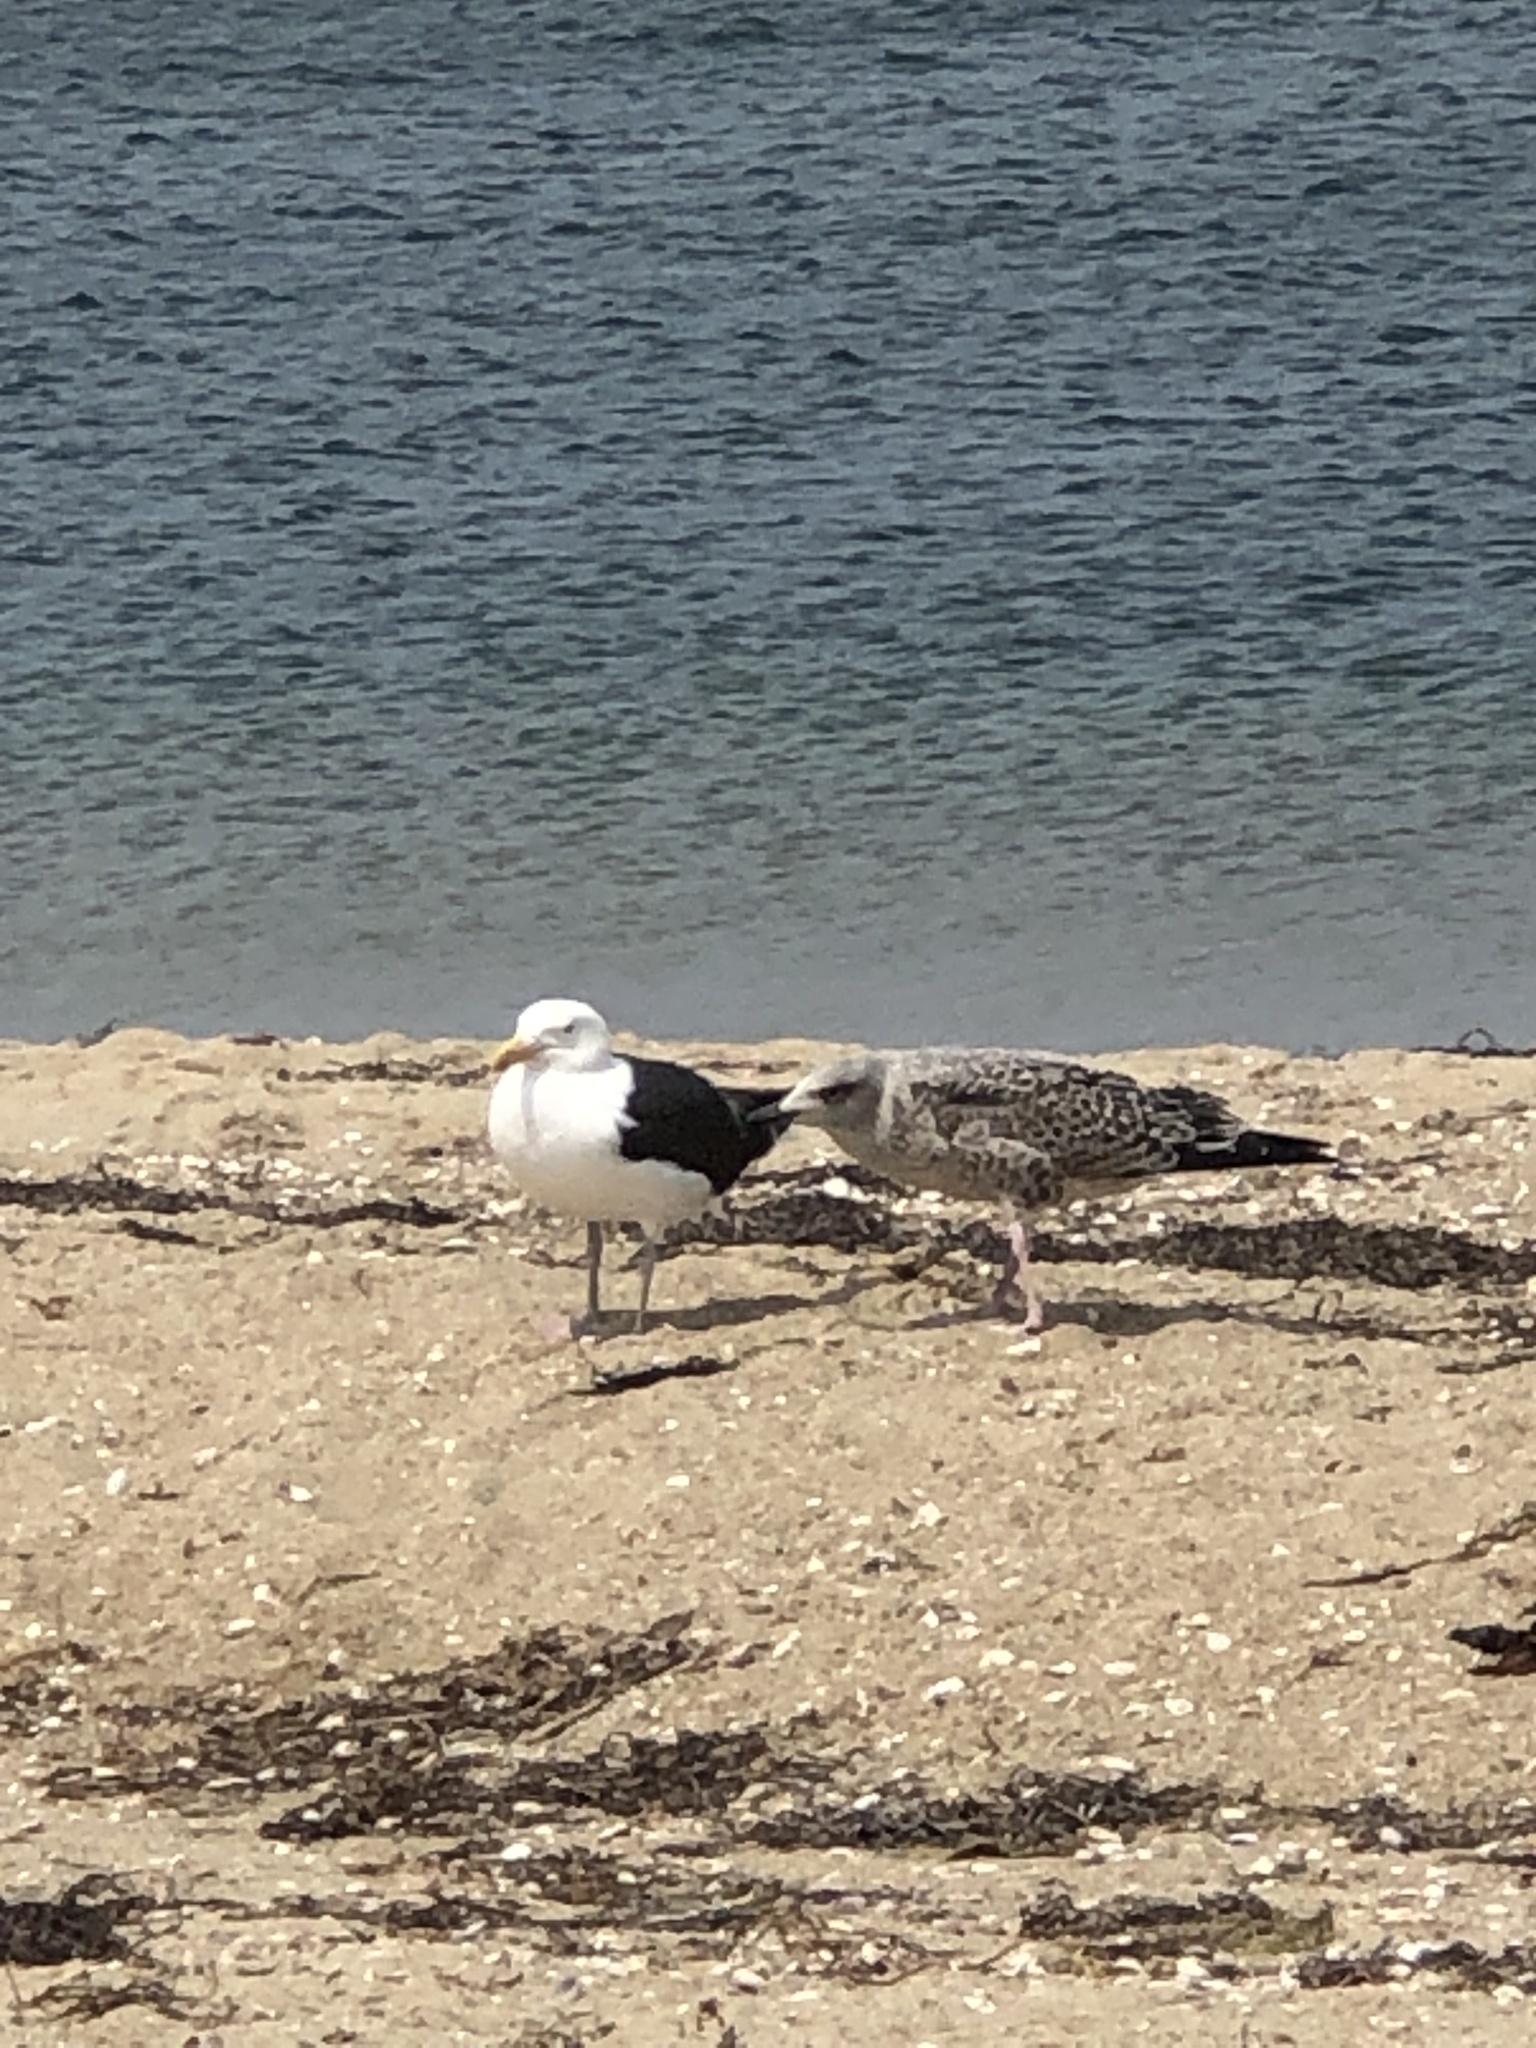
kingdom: Animalia
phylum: Chordata
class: Aves
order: Charadriiformes
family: Laridae
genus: Larus
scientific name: Larus marinus
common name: Great black-backed gull
